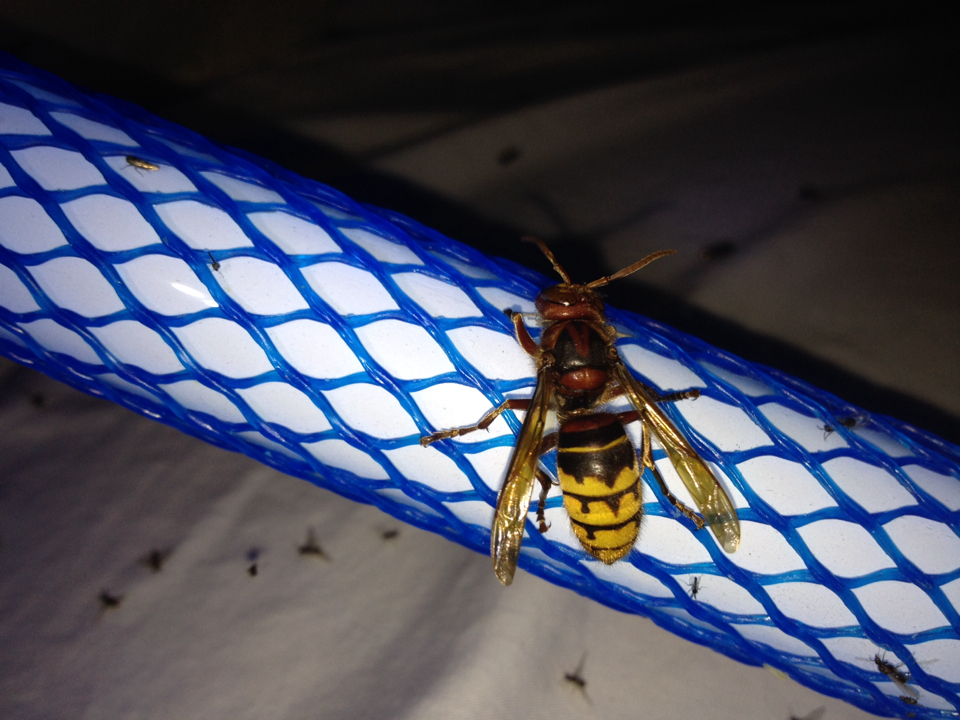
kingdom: Animalia
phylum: Arthropoda
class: Insecta
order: Hymenoptera
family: Vespidae
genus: Vespa
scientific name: Vespa crabro
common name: Hornet
